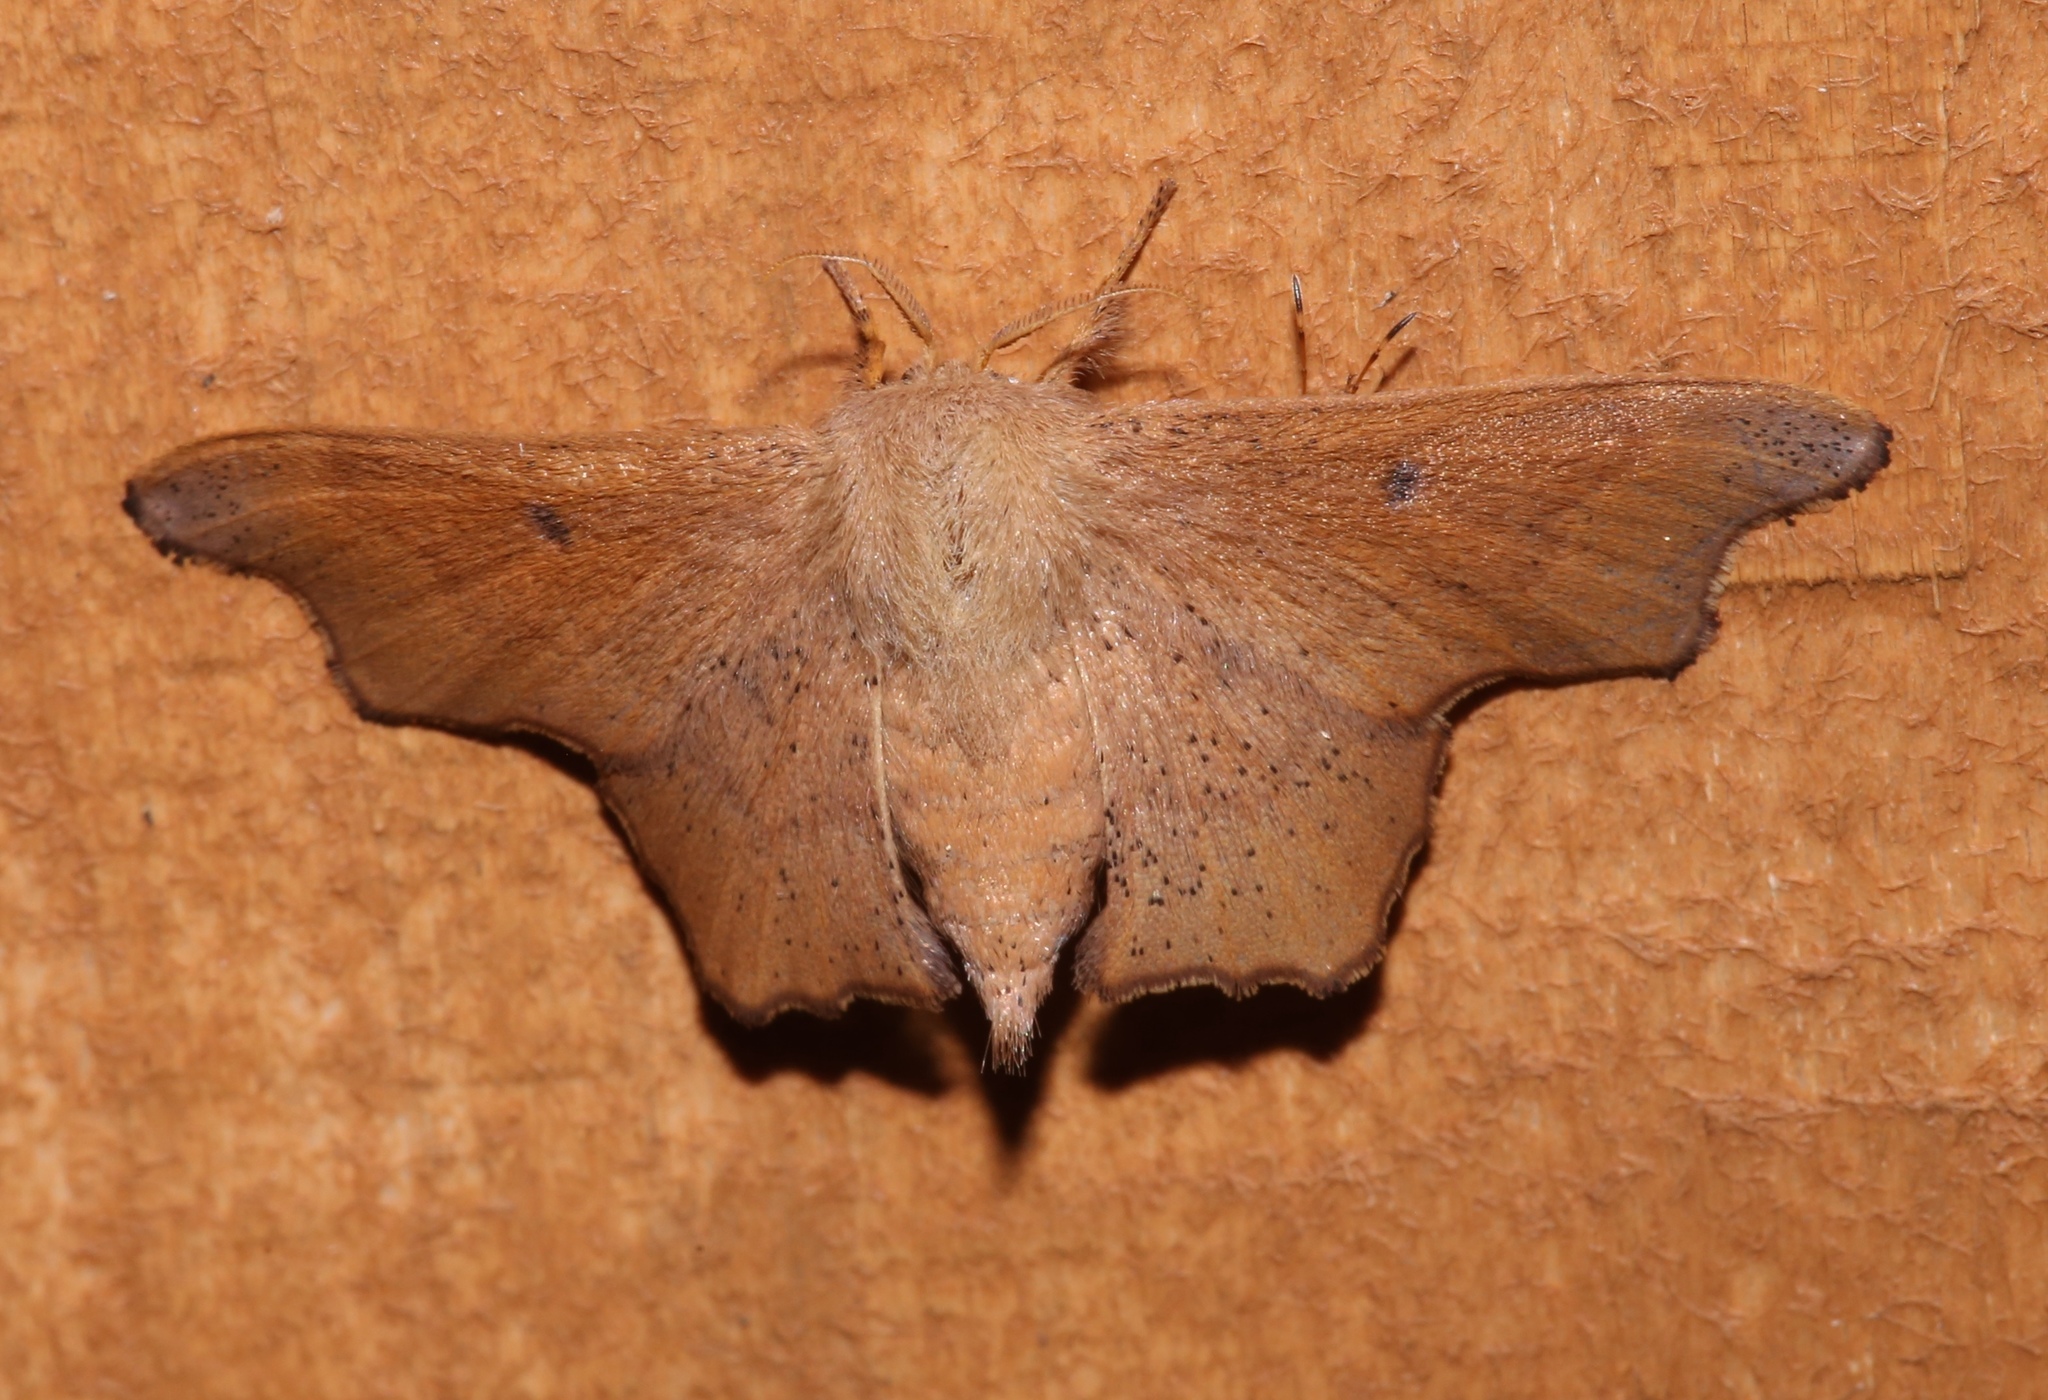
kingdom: Animalia
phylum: Arthropoda
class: Insecta
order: Lepidoptera
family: Mimallonidae
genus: Lacosoma
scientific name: Lacosoma chiridota
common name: Scalloped sack-bearer moth
